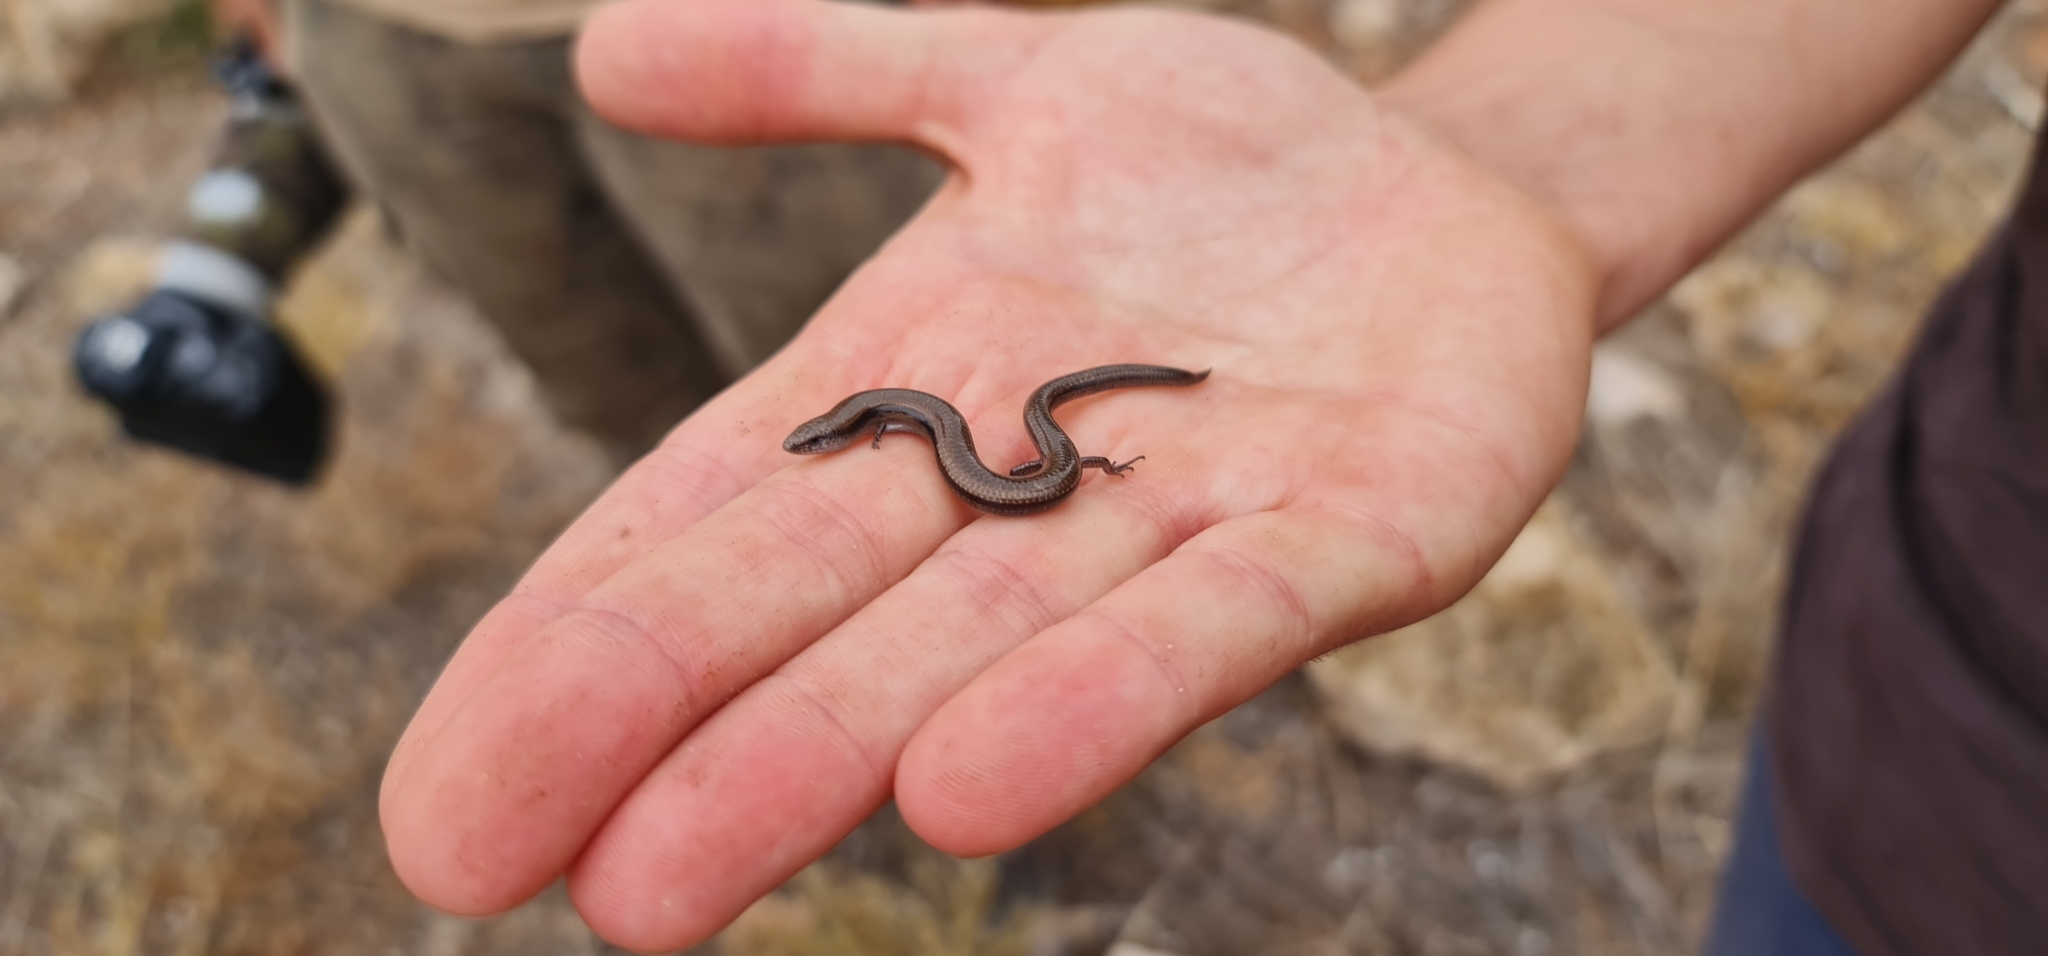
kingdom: Animalia
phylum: Chordata
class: Squamata
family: Scincidae
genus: Lerista
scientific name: Lerista dorsalis
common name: Southern slider
